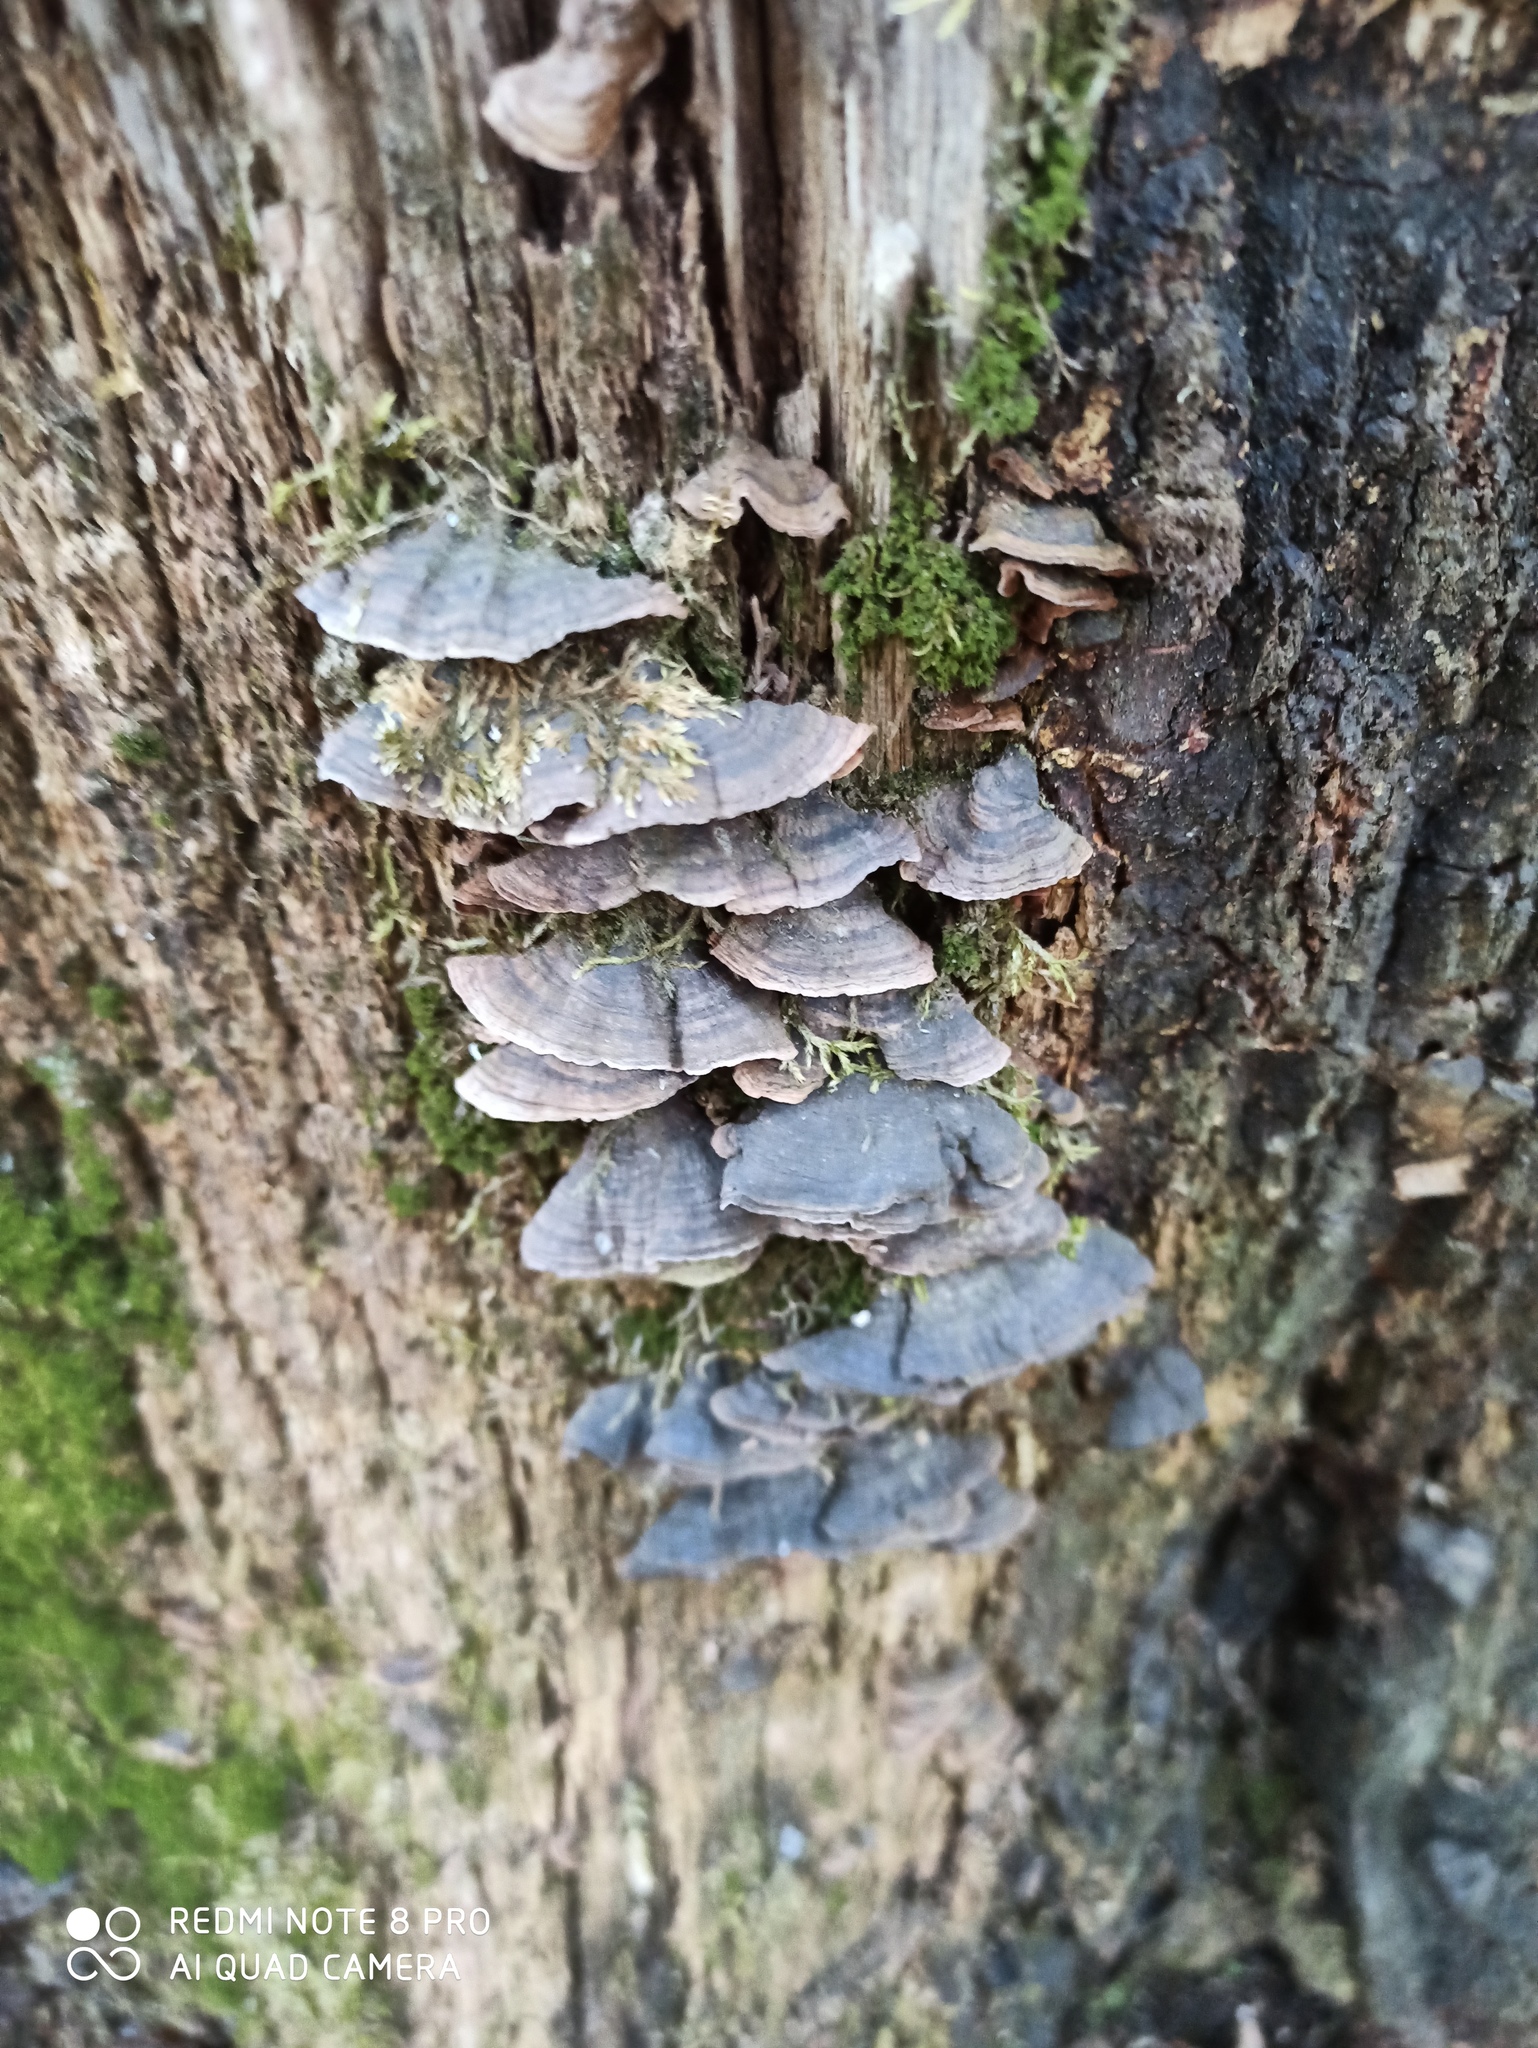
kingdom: Fungi
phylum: Basidiomycota
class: Agaricomycetes
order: Hymenochaetales
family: Hymenochaetaceae
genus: Hymenochaete
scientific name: Hymenochaete rubiginosa
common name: Oak curtain crust
